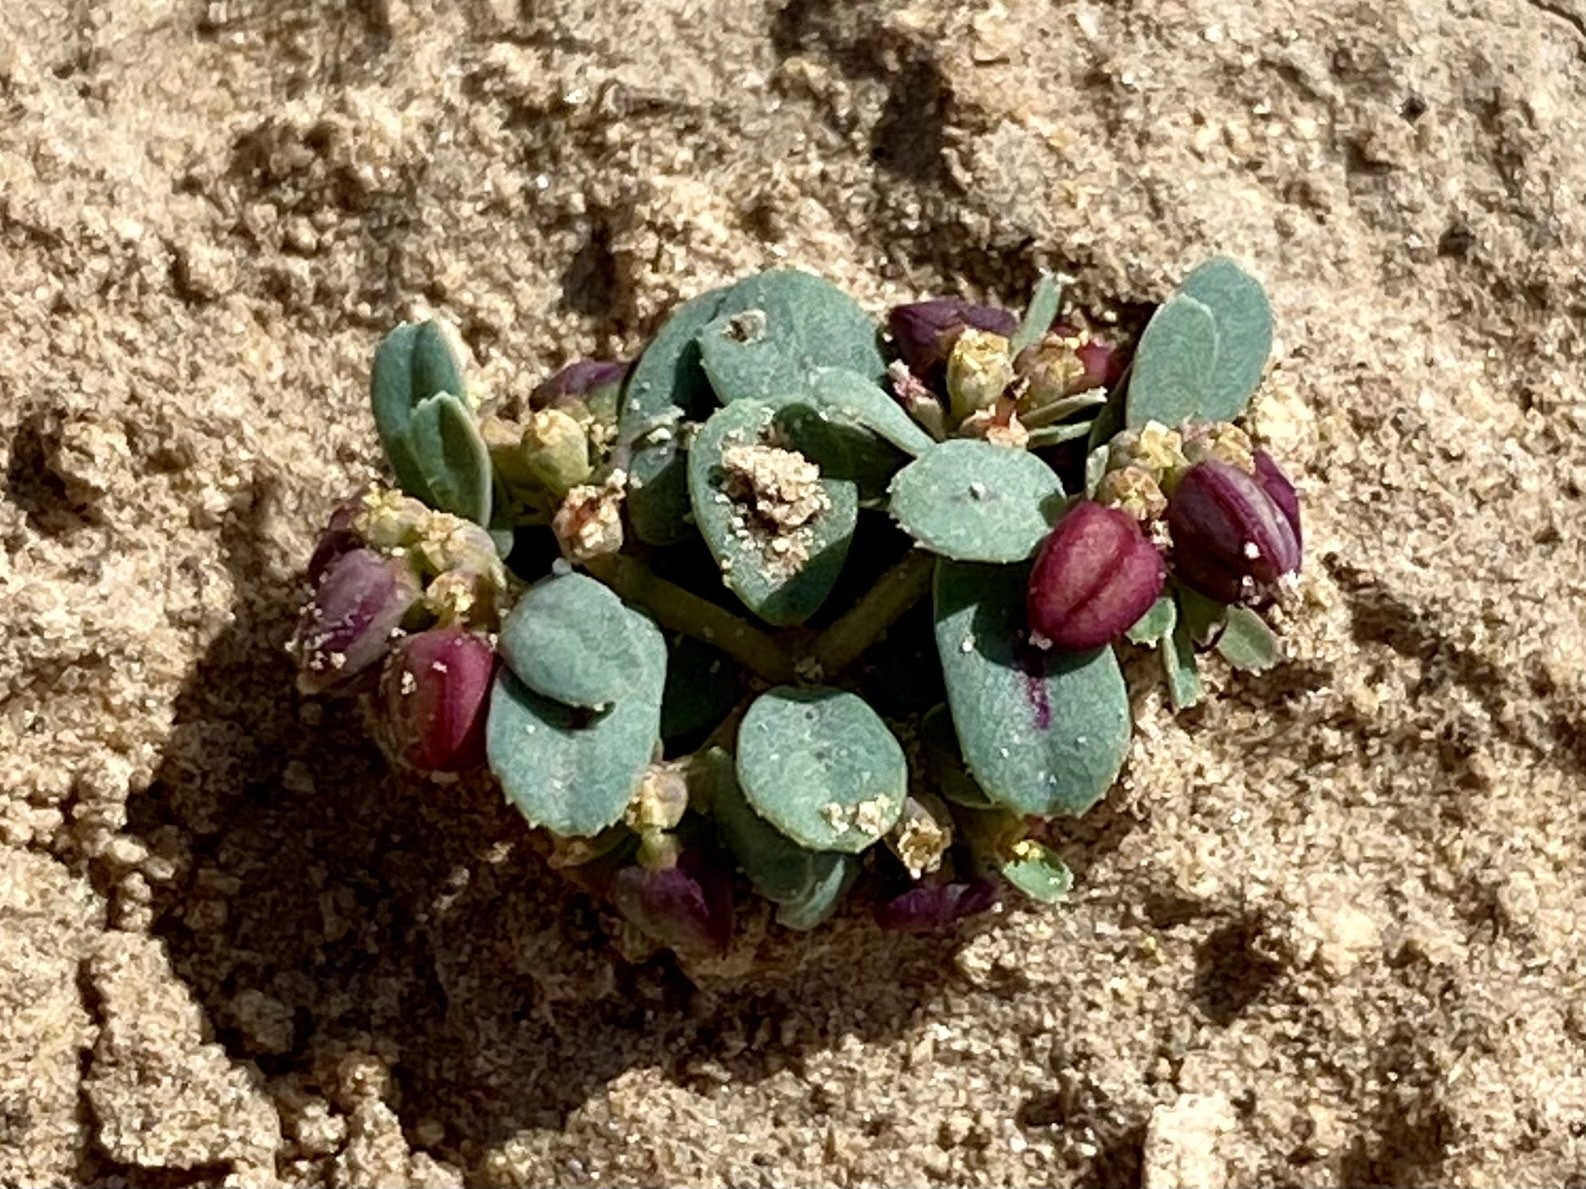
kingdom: Plantae
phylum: Tracheophyta
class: Magnoliopsida
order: Malpighiales
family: Euphorbiaceae
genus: Euphorbia
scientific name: Euphorbia serpillifolia
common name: Thyme-leaf spurge
